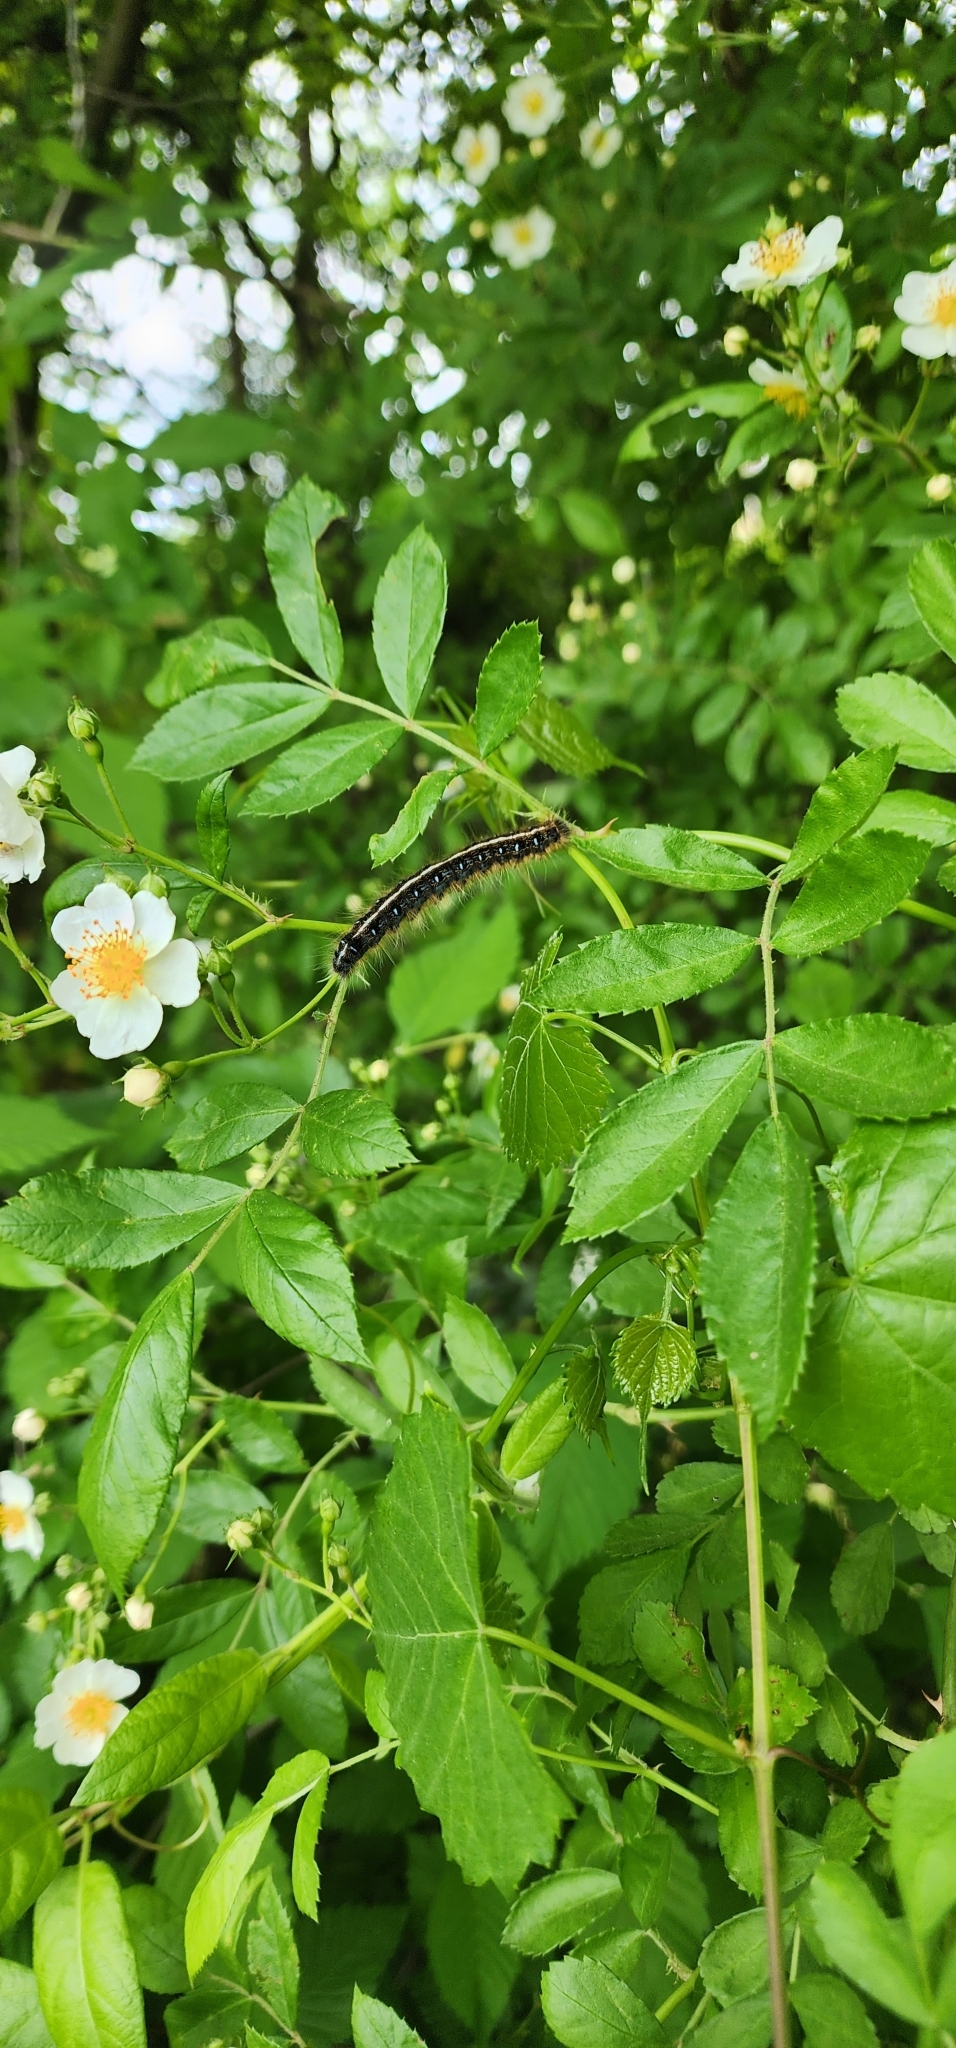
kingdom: Animalia
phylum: Arthropoda
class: Insecta
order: Lepidoptera
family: Lasiocampidae
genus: Malacosoma
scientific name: Malacosoma americana
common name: Eastern tent caterpillar moth
